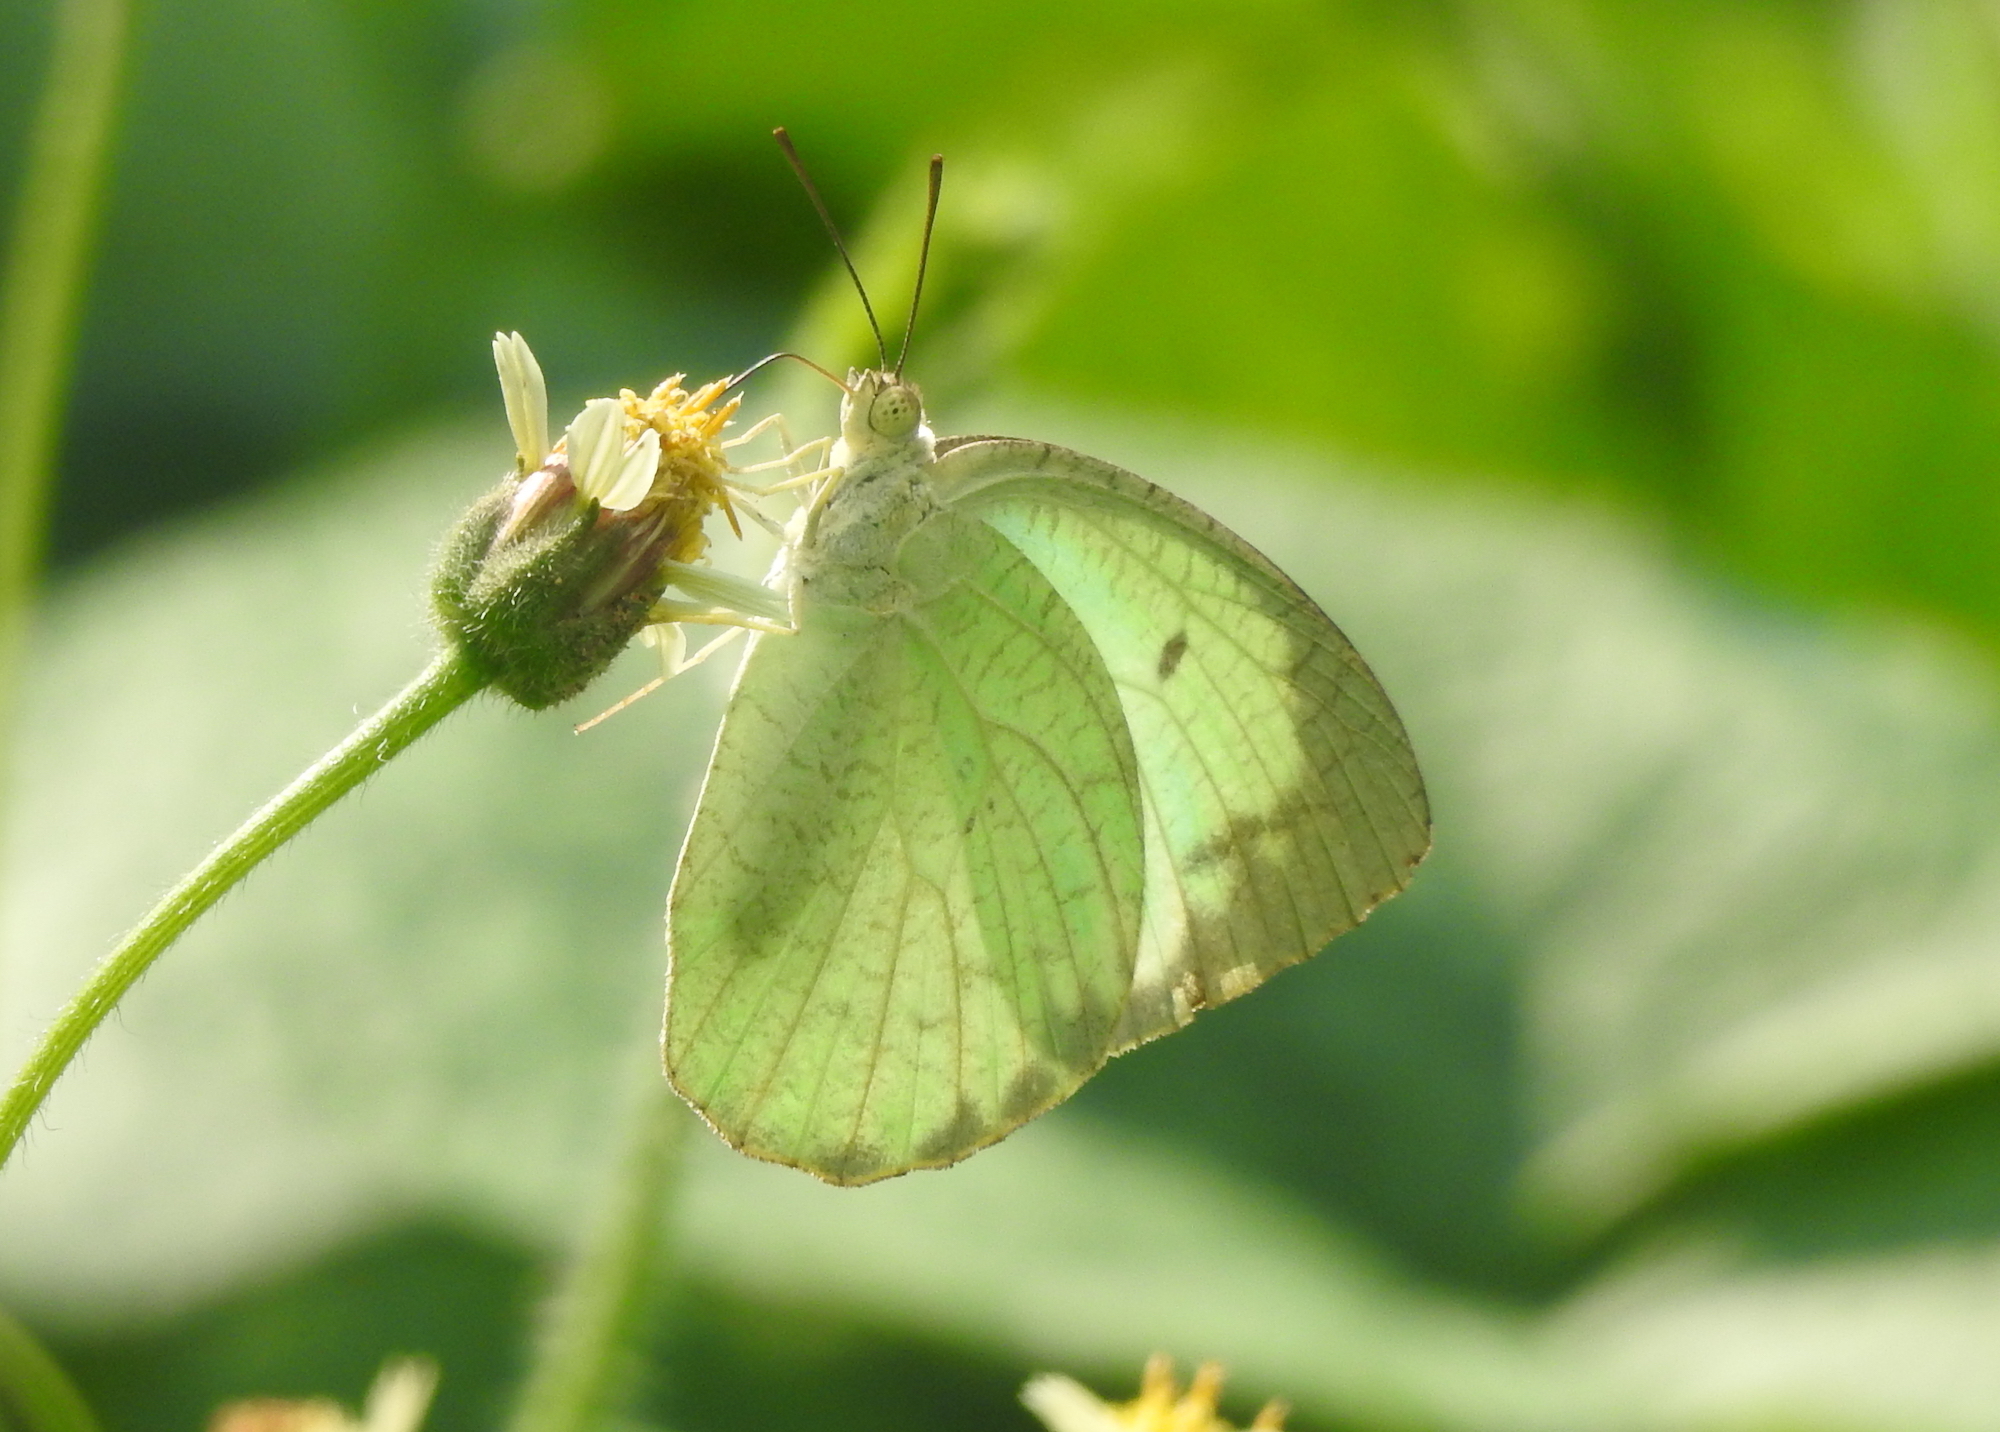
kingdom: Animalia
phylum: Arthropoda
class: Insecta
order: Lepidoptera
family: Pieridae
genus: Catopsilia
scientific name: Catopsilia pyranthe
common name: Mottled emigrant
